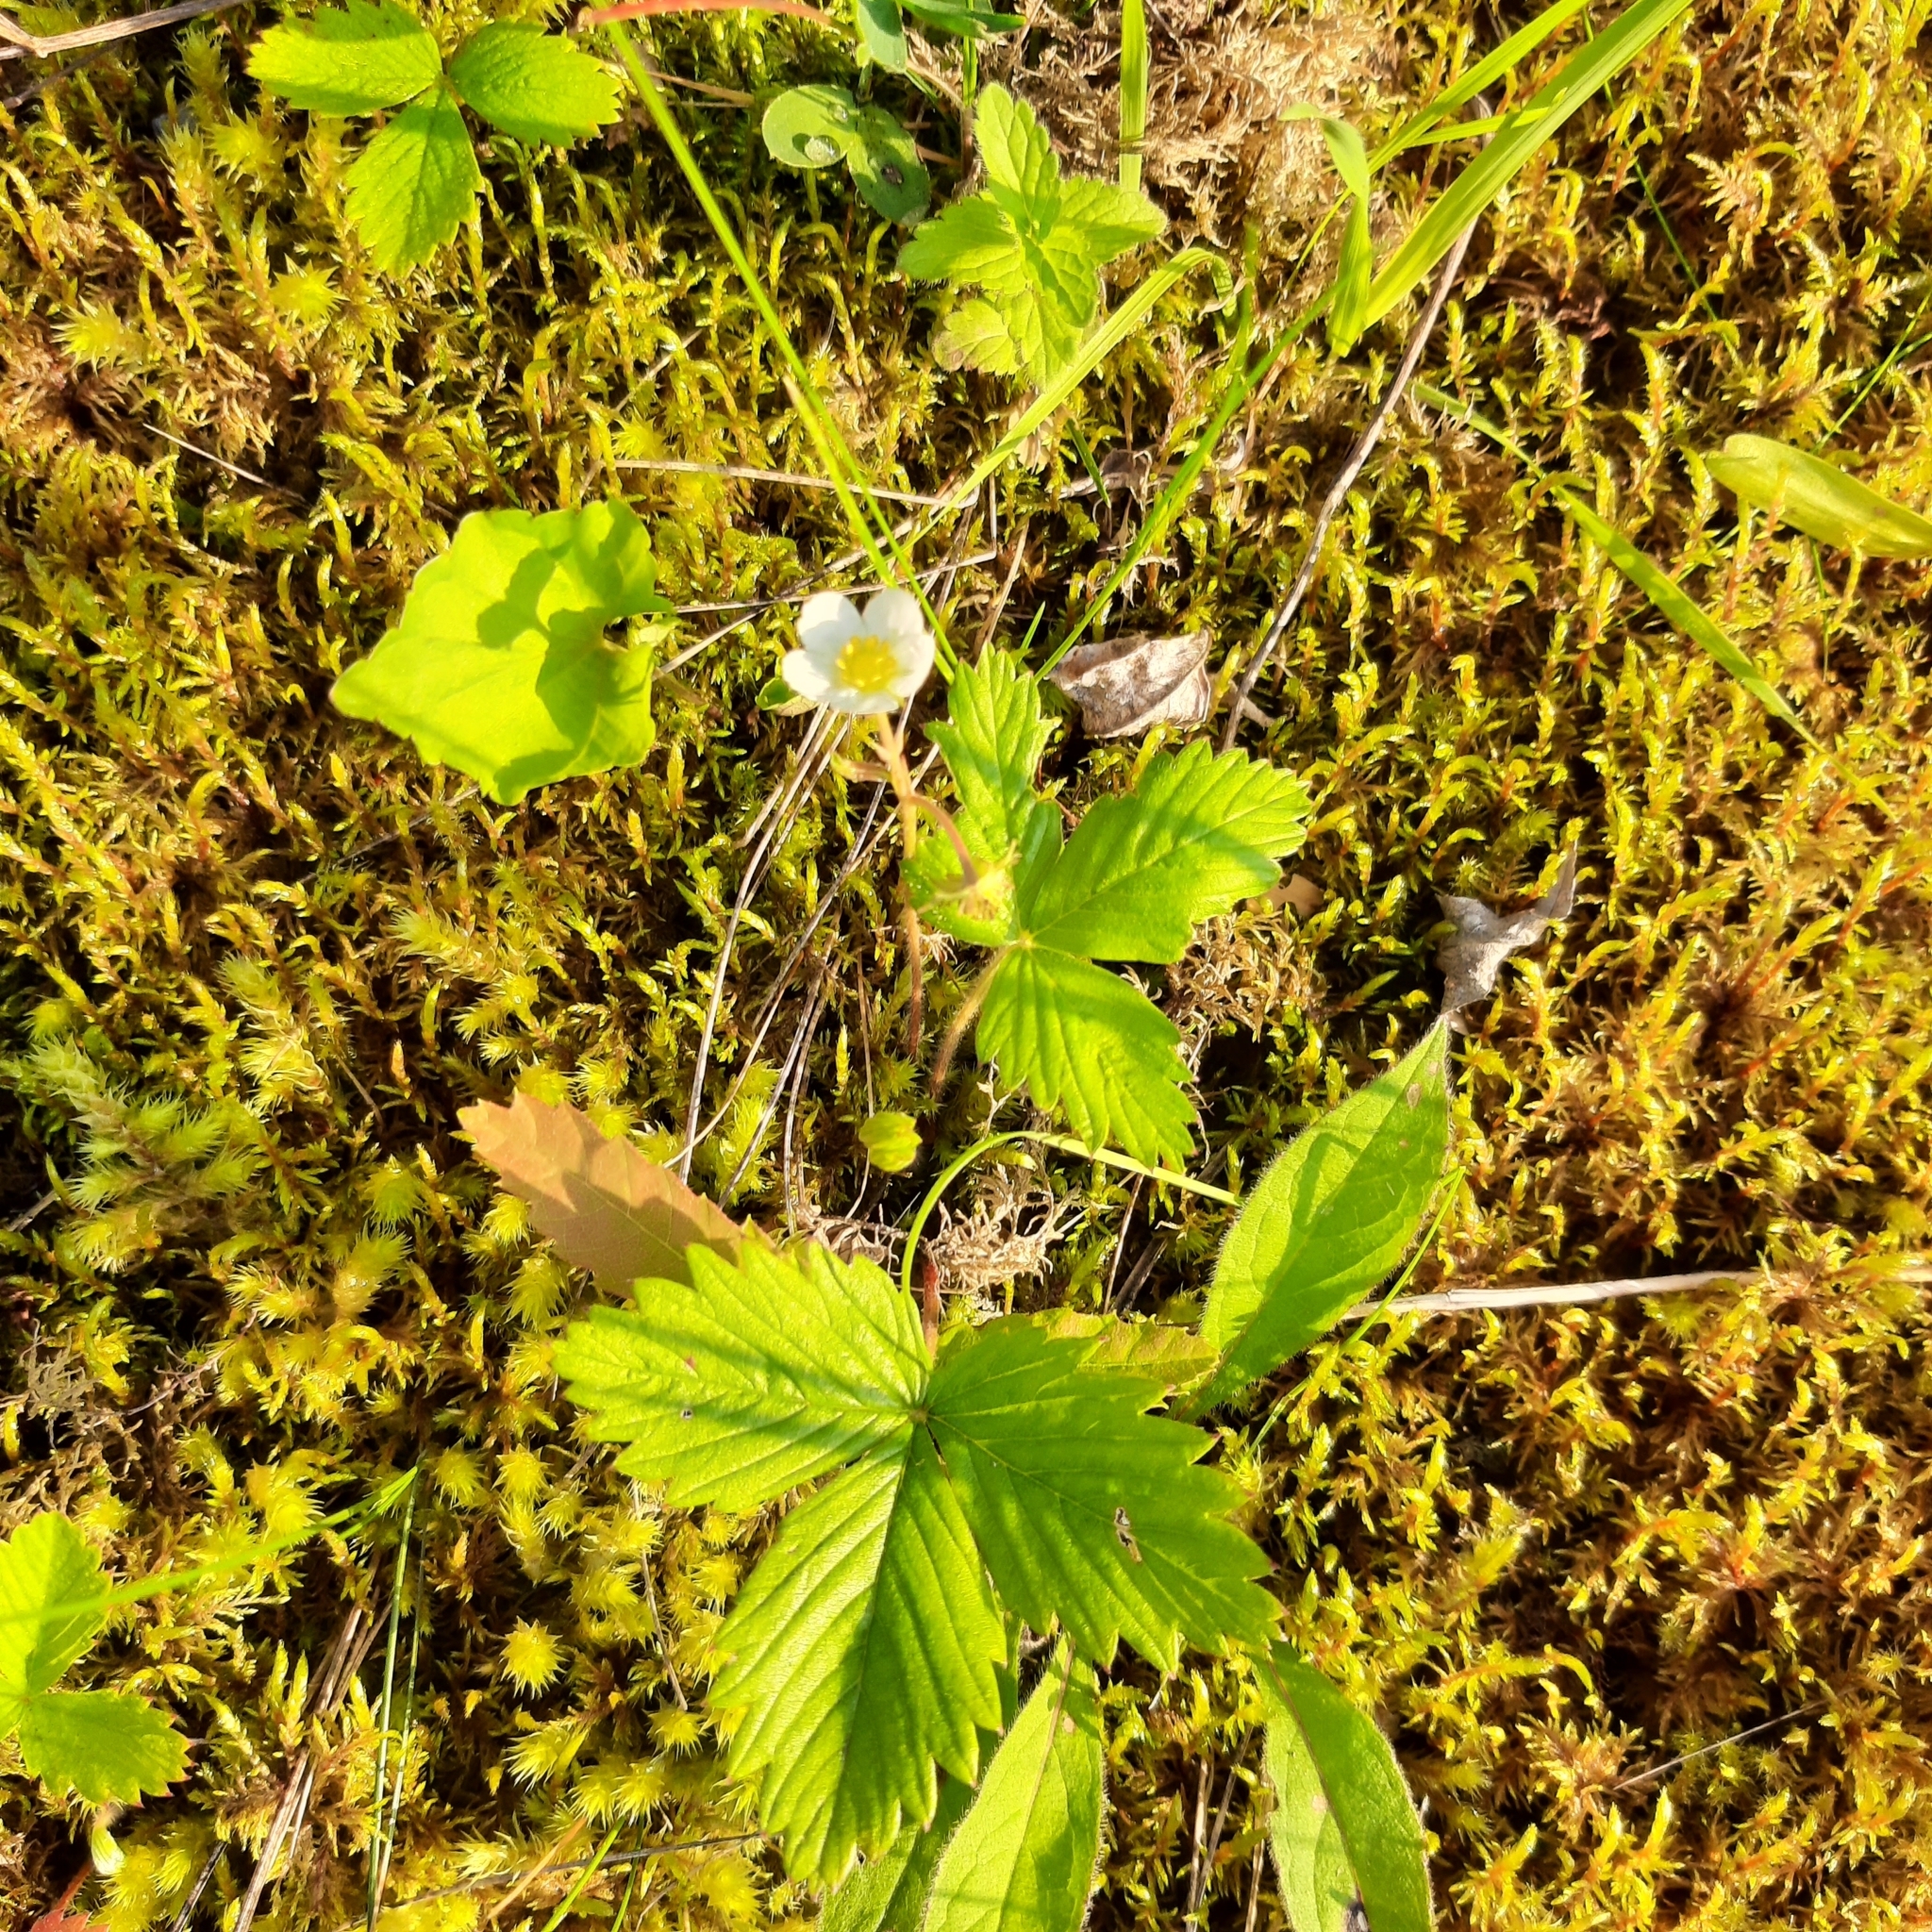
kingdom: Plantae
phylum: Tracheophyta
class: Magnoliopsida
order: Rosales
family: Rosaceae
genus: Fragaria
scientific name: Fragaria vesca
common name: Wild strawberry
